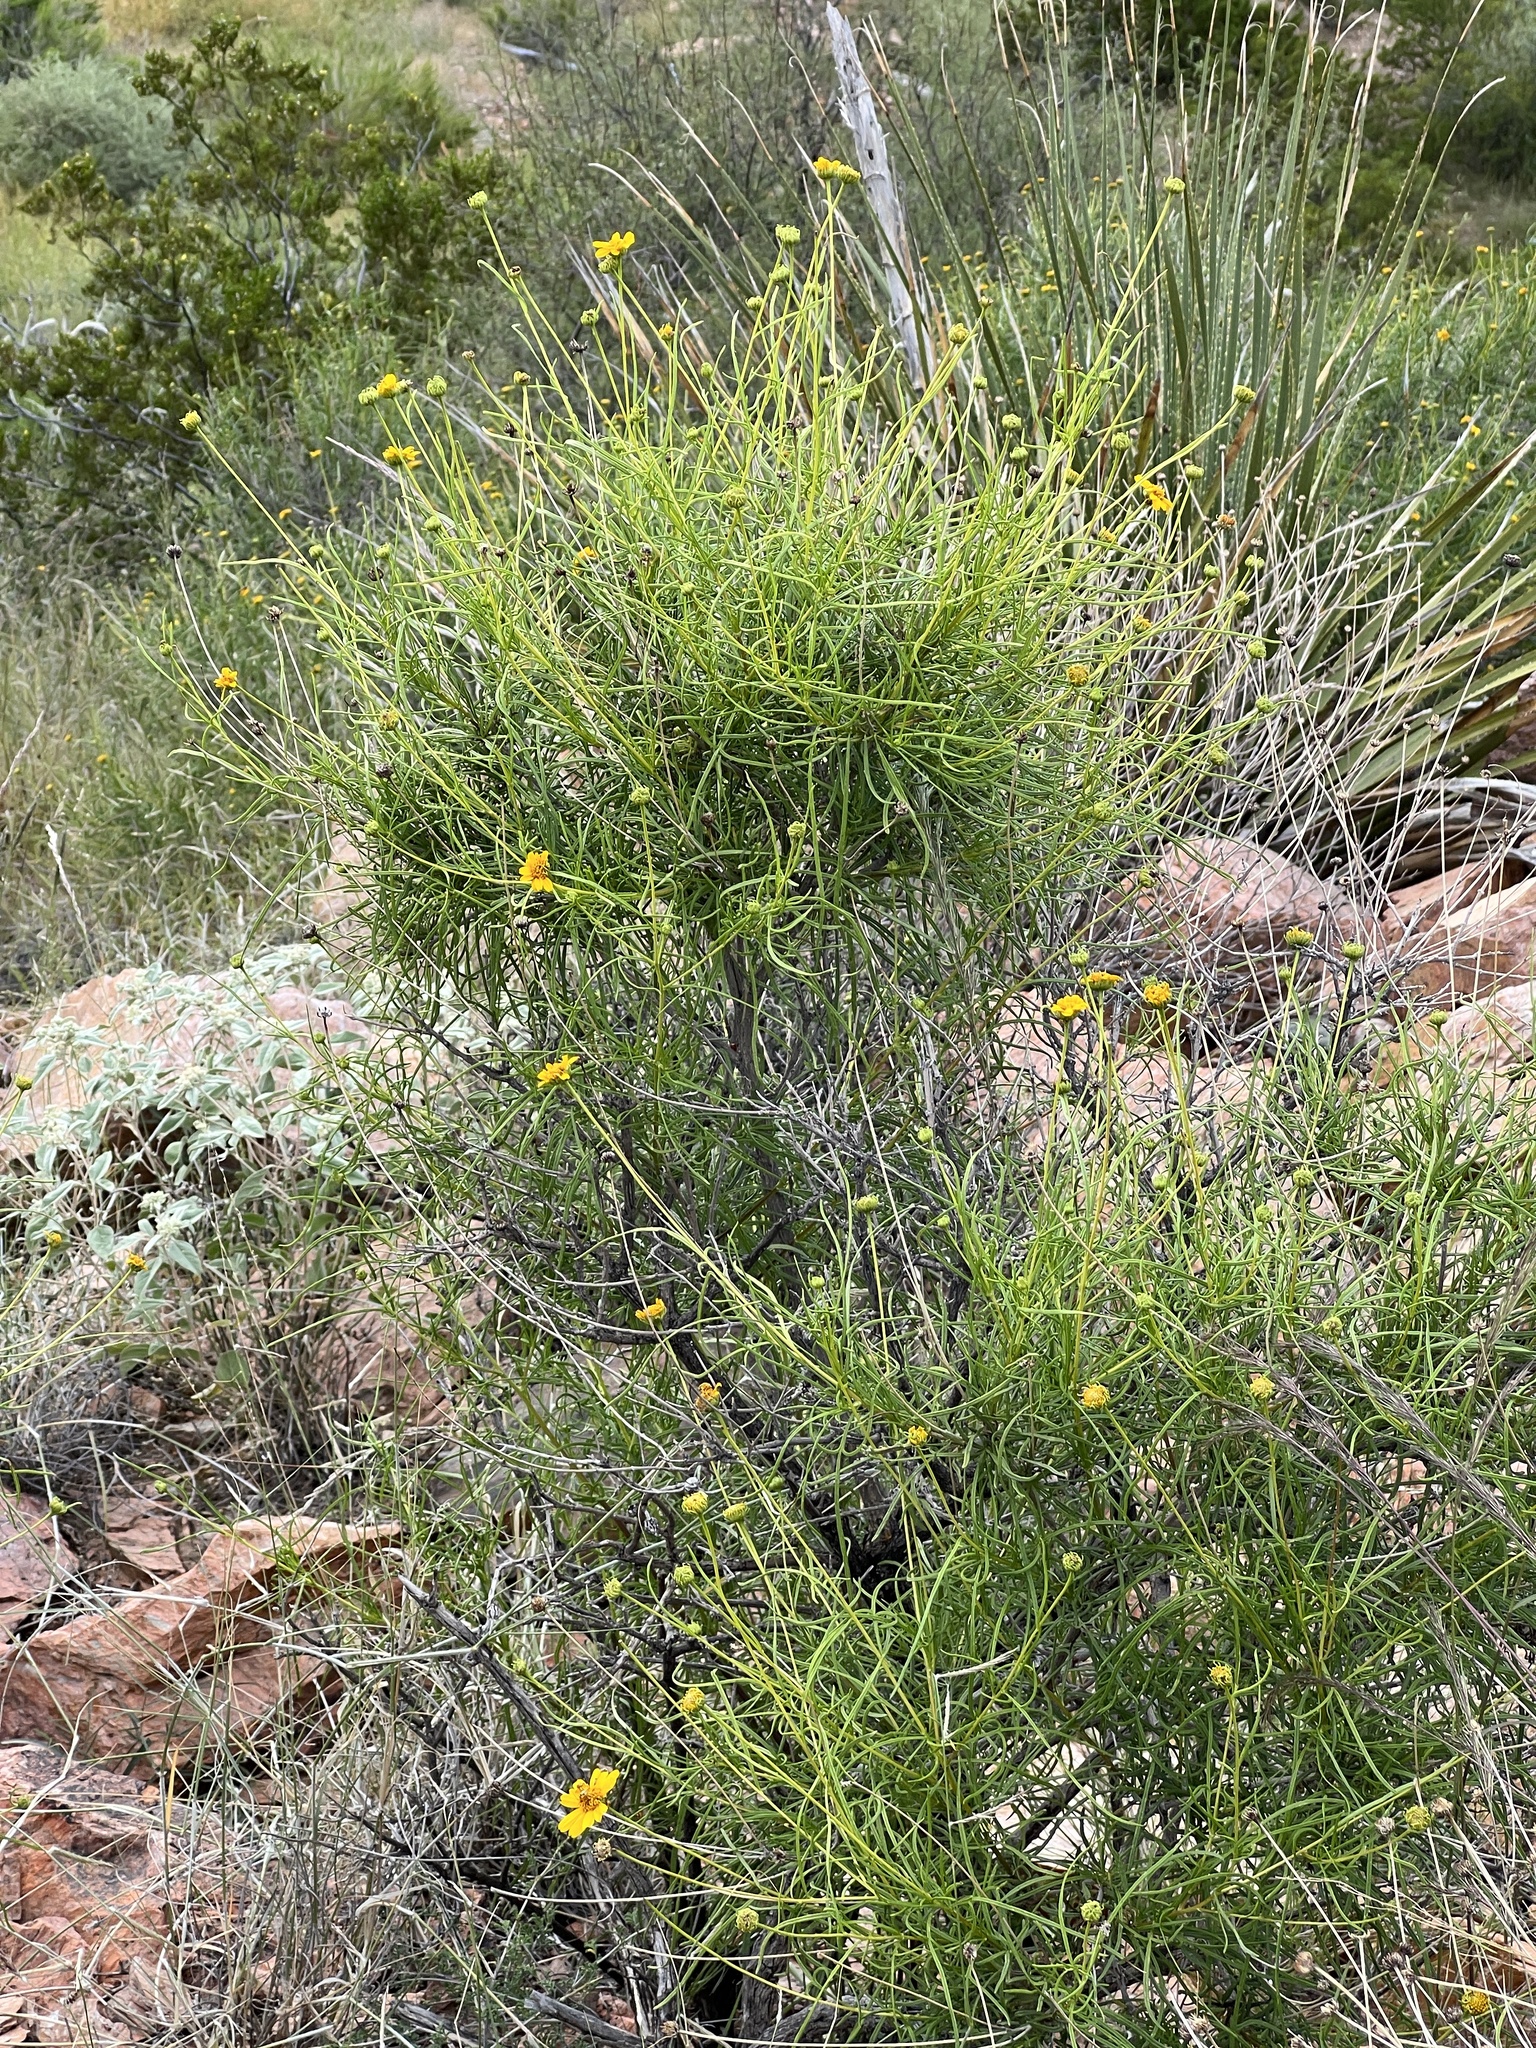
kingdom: Plantae
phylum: Tracheophyta
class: Magnoliopsida
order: Asterales
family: Asteraceae
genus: Sidneya
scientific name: Sidneya tenuifolia
